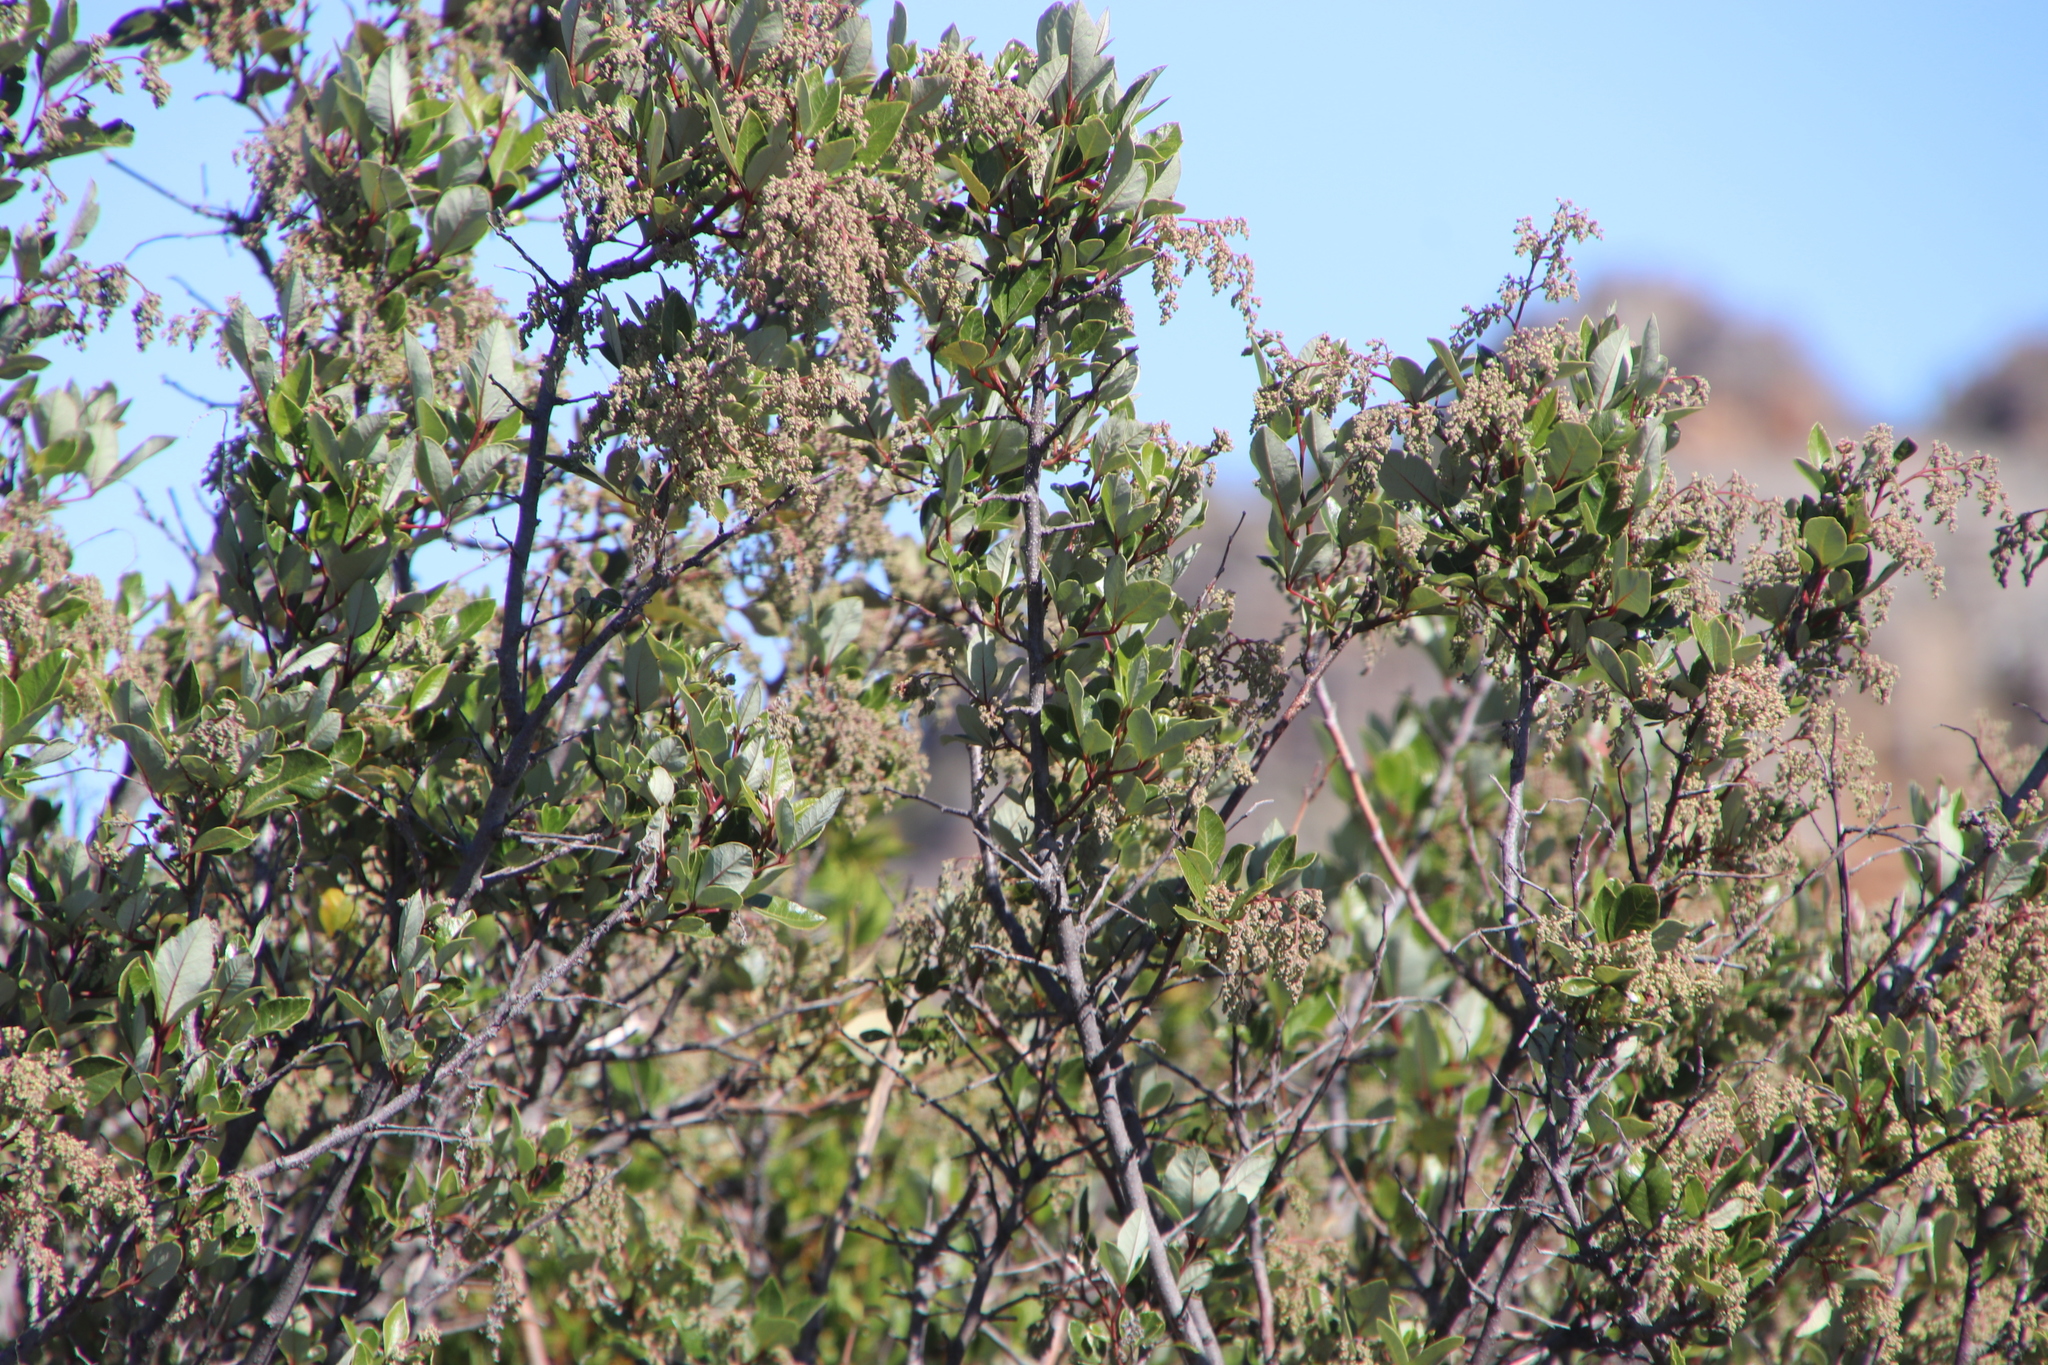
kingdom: Plantae
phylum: Tracheophyta
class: Magnoliopsida
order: Sapindales
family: Anacardiaceae
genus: Searsia
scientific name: Searsia tomentosa
